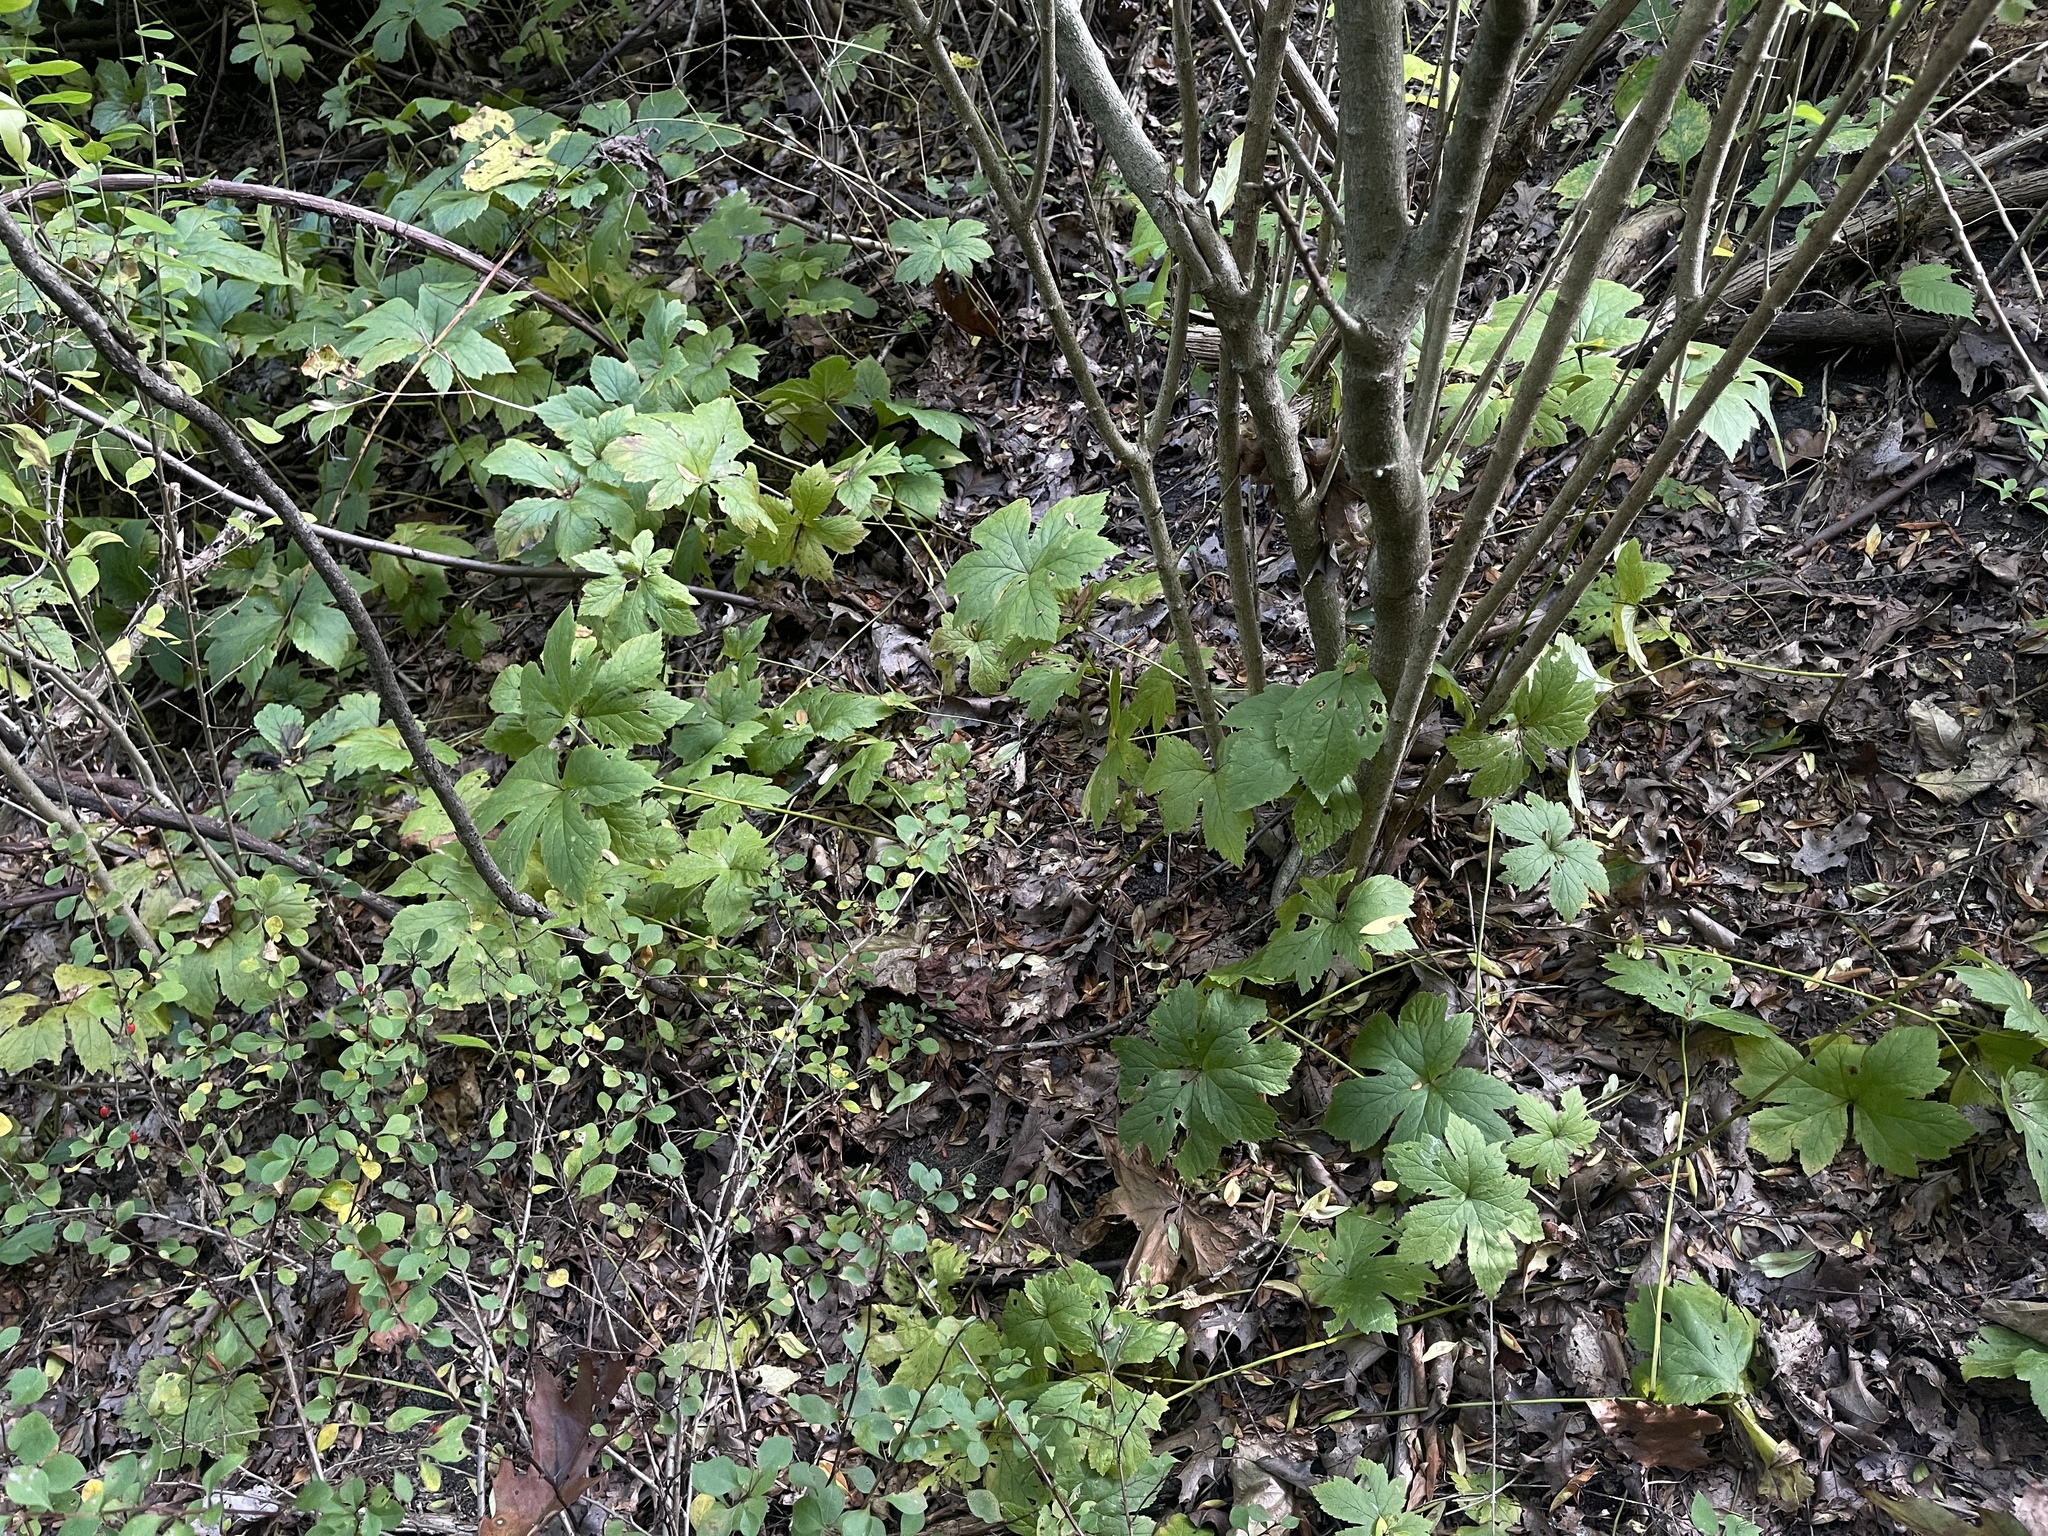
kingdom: Plantae
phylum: Tracheophyta
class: Magnoliopsida
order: Ranunculales
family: Ranunculaceae
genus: Hydrastis
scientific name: Hydrastis canadensis
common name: Goldenseal
